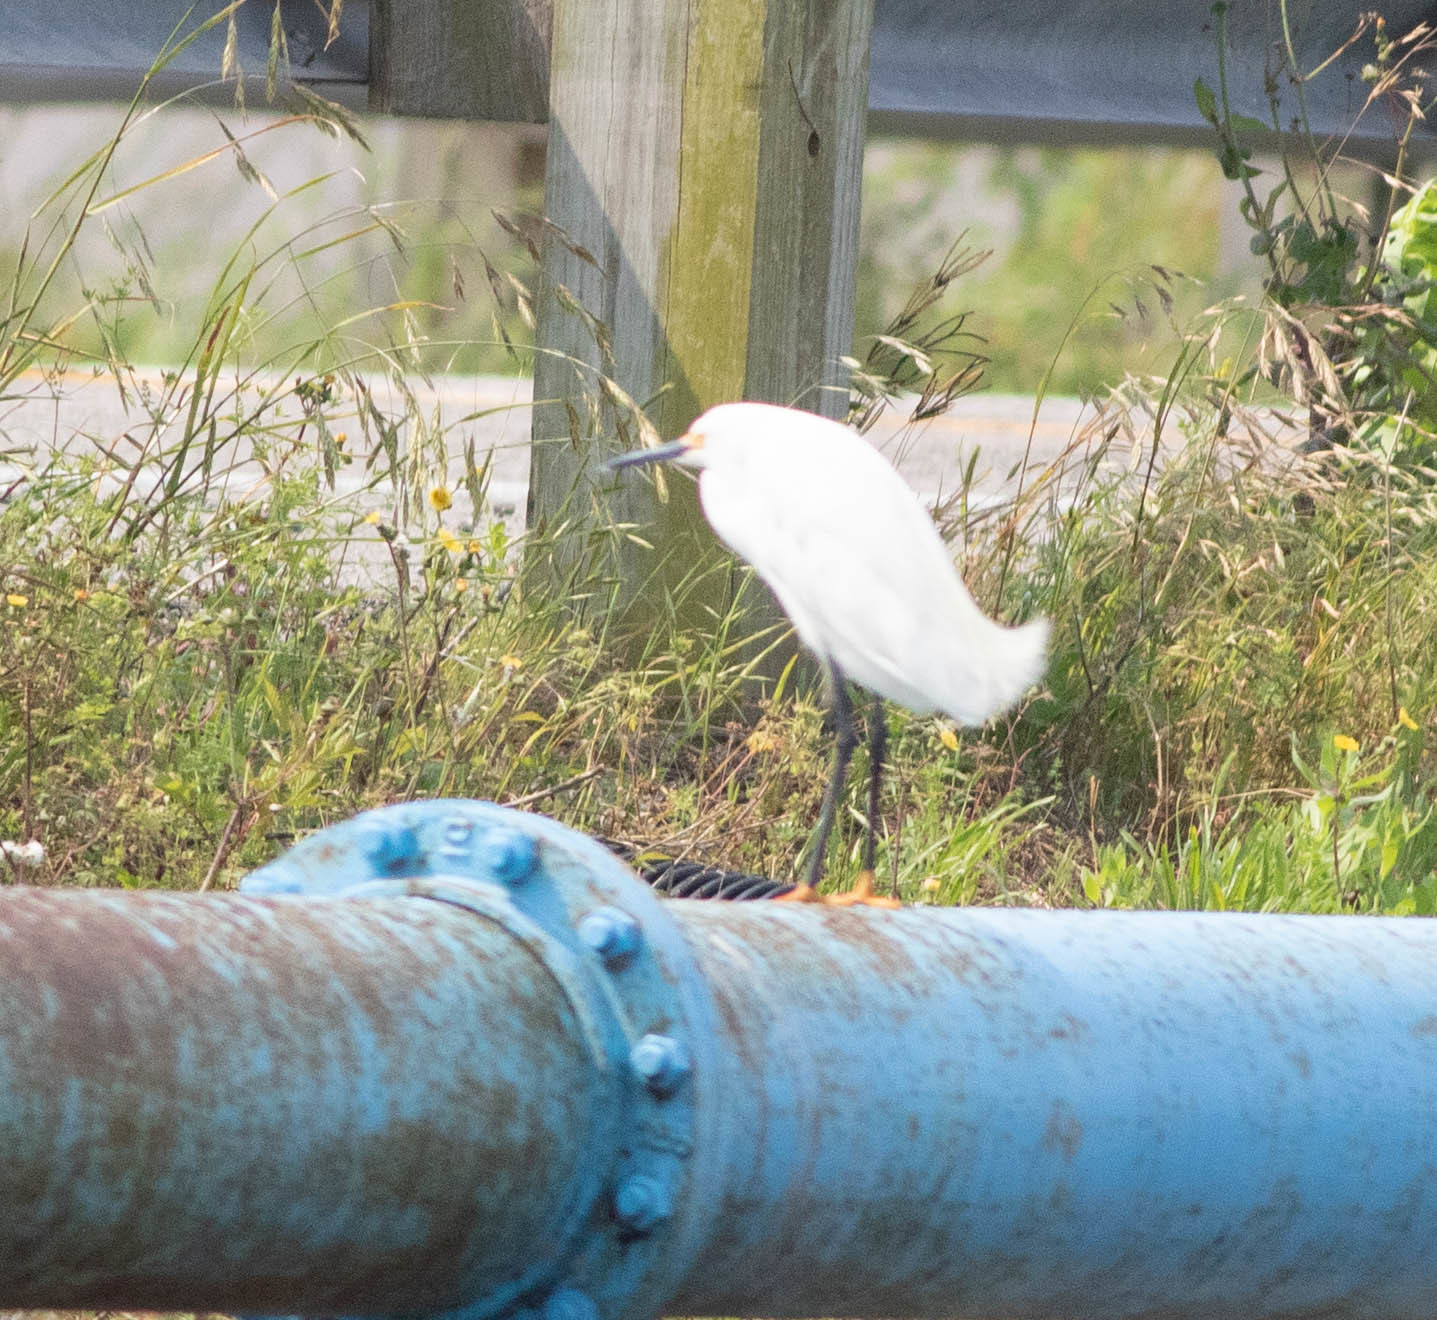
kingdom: Animalia
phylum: Chordata
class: Aves
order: Pelecaniformes
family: Ardeidae
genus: Egretta
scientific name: Egretta thula
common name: Snowy egret
